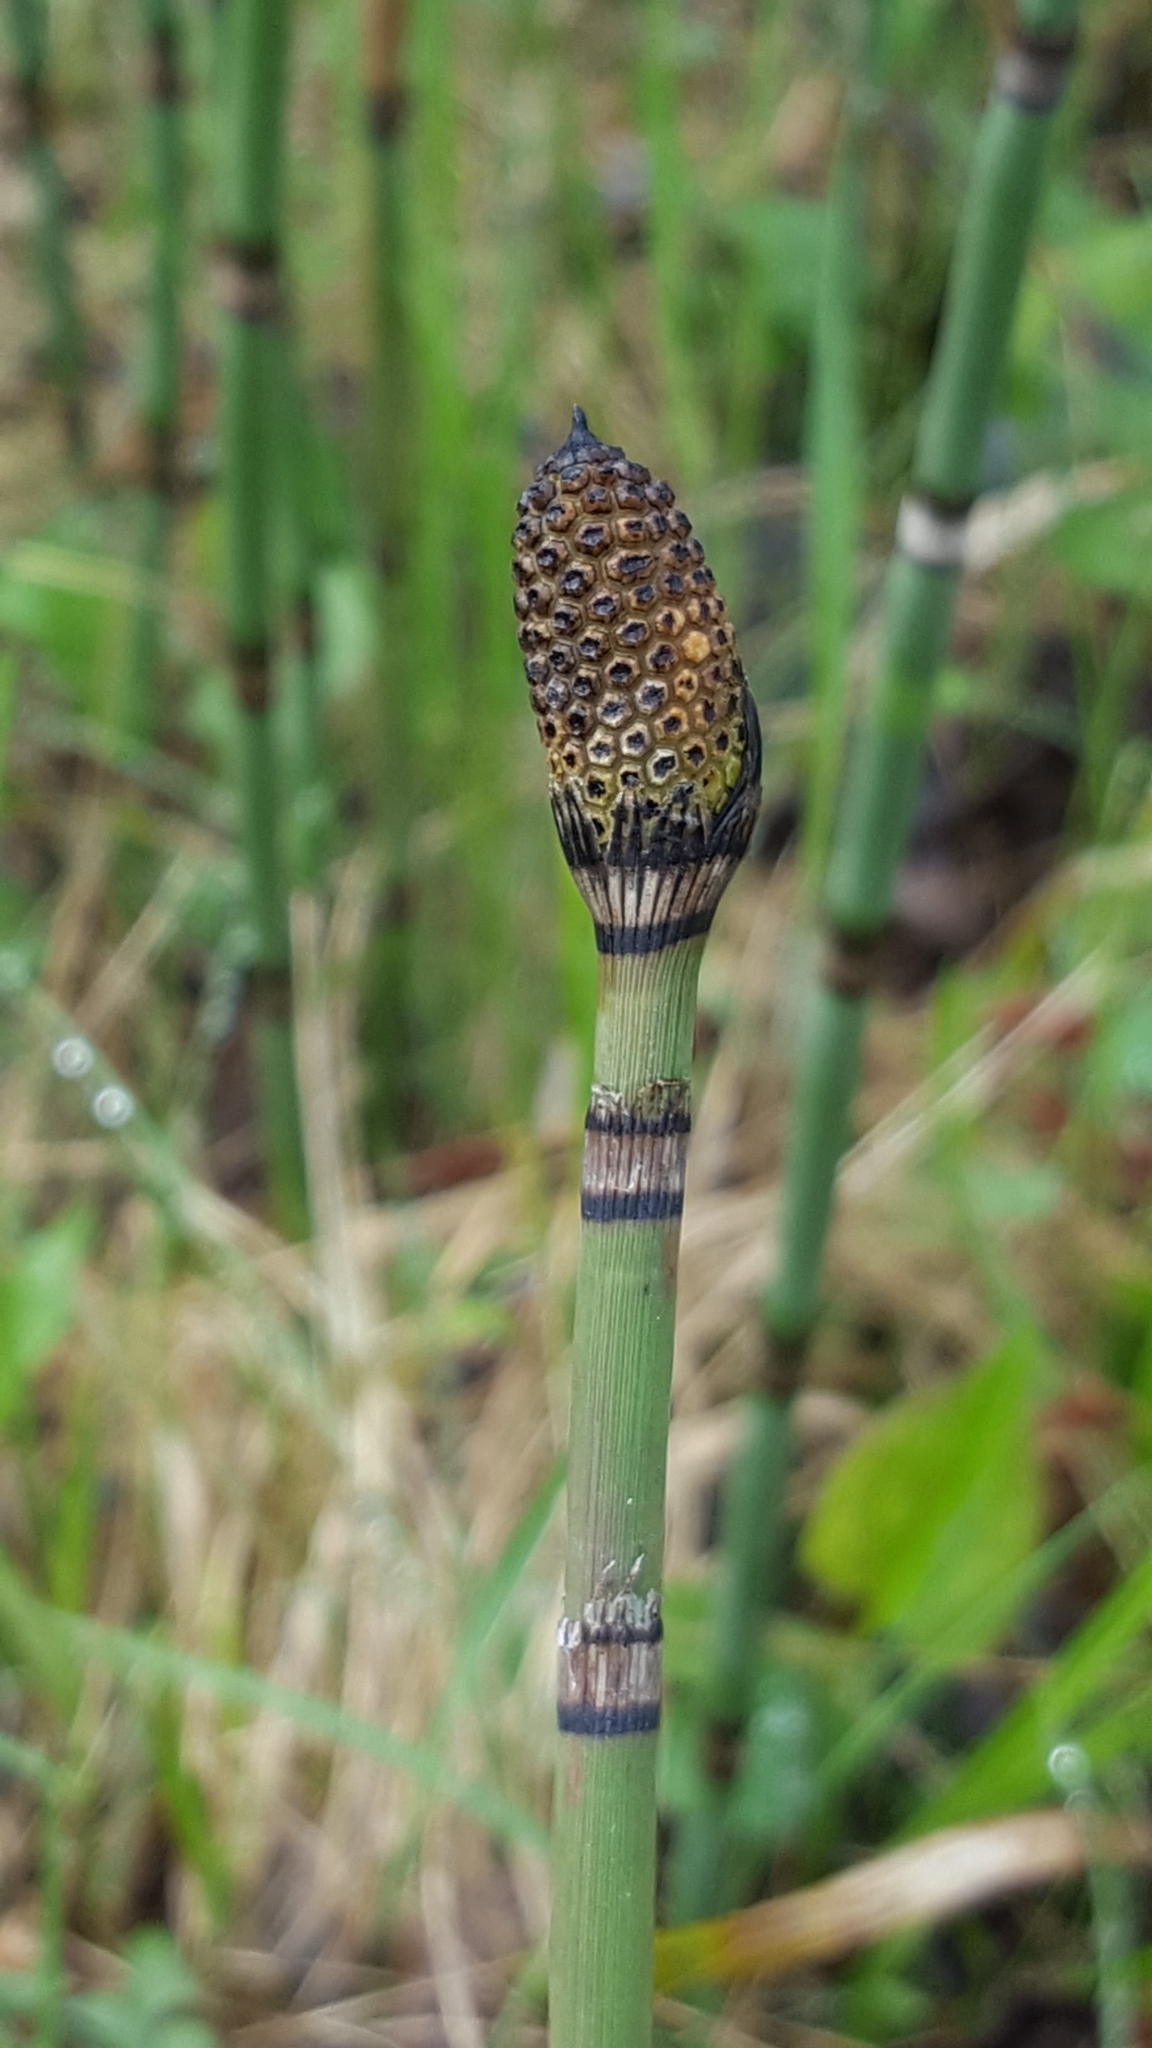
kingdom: Plantae
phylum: Tracheophyta
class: Polypodiopsida
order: Equisetales
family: Equisetaceae
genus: Equisetum
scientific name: Equisetum hyemale
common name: Rough horsetail
